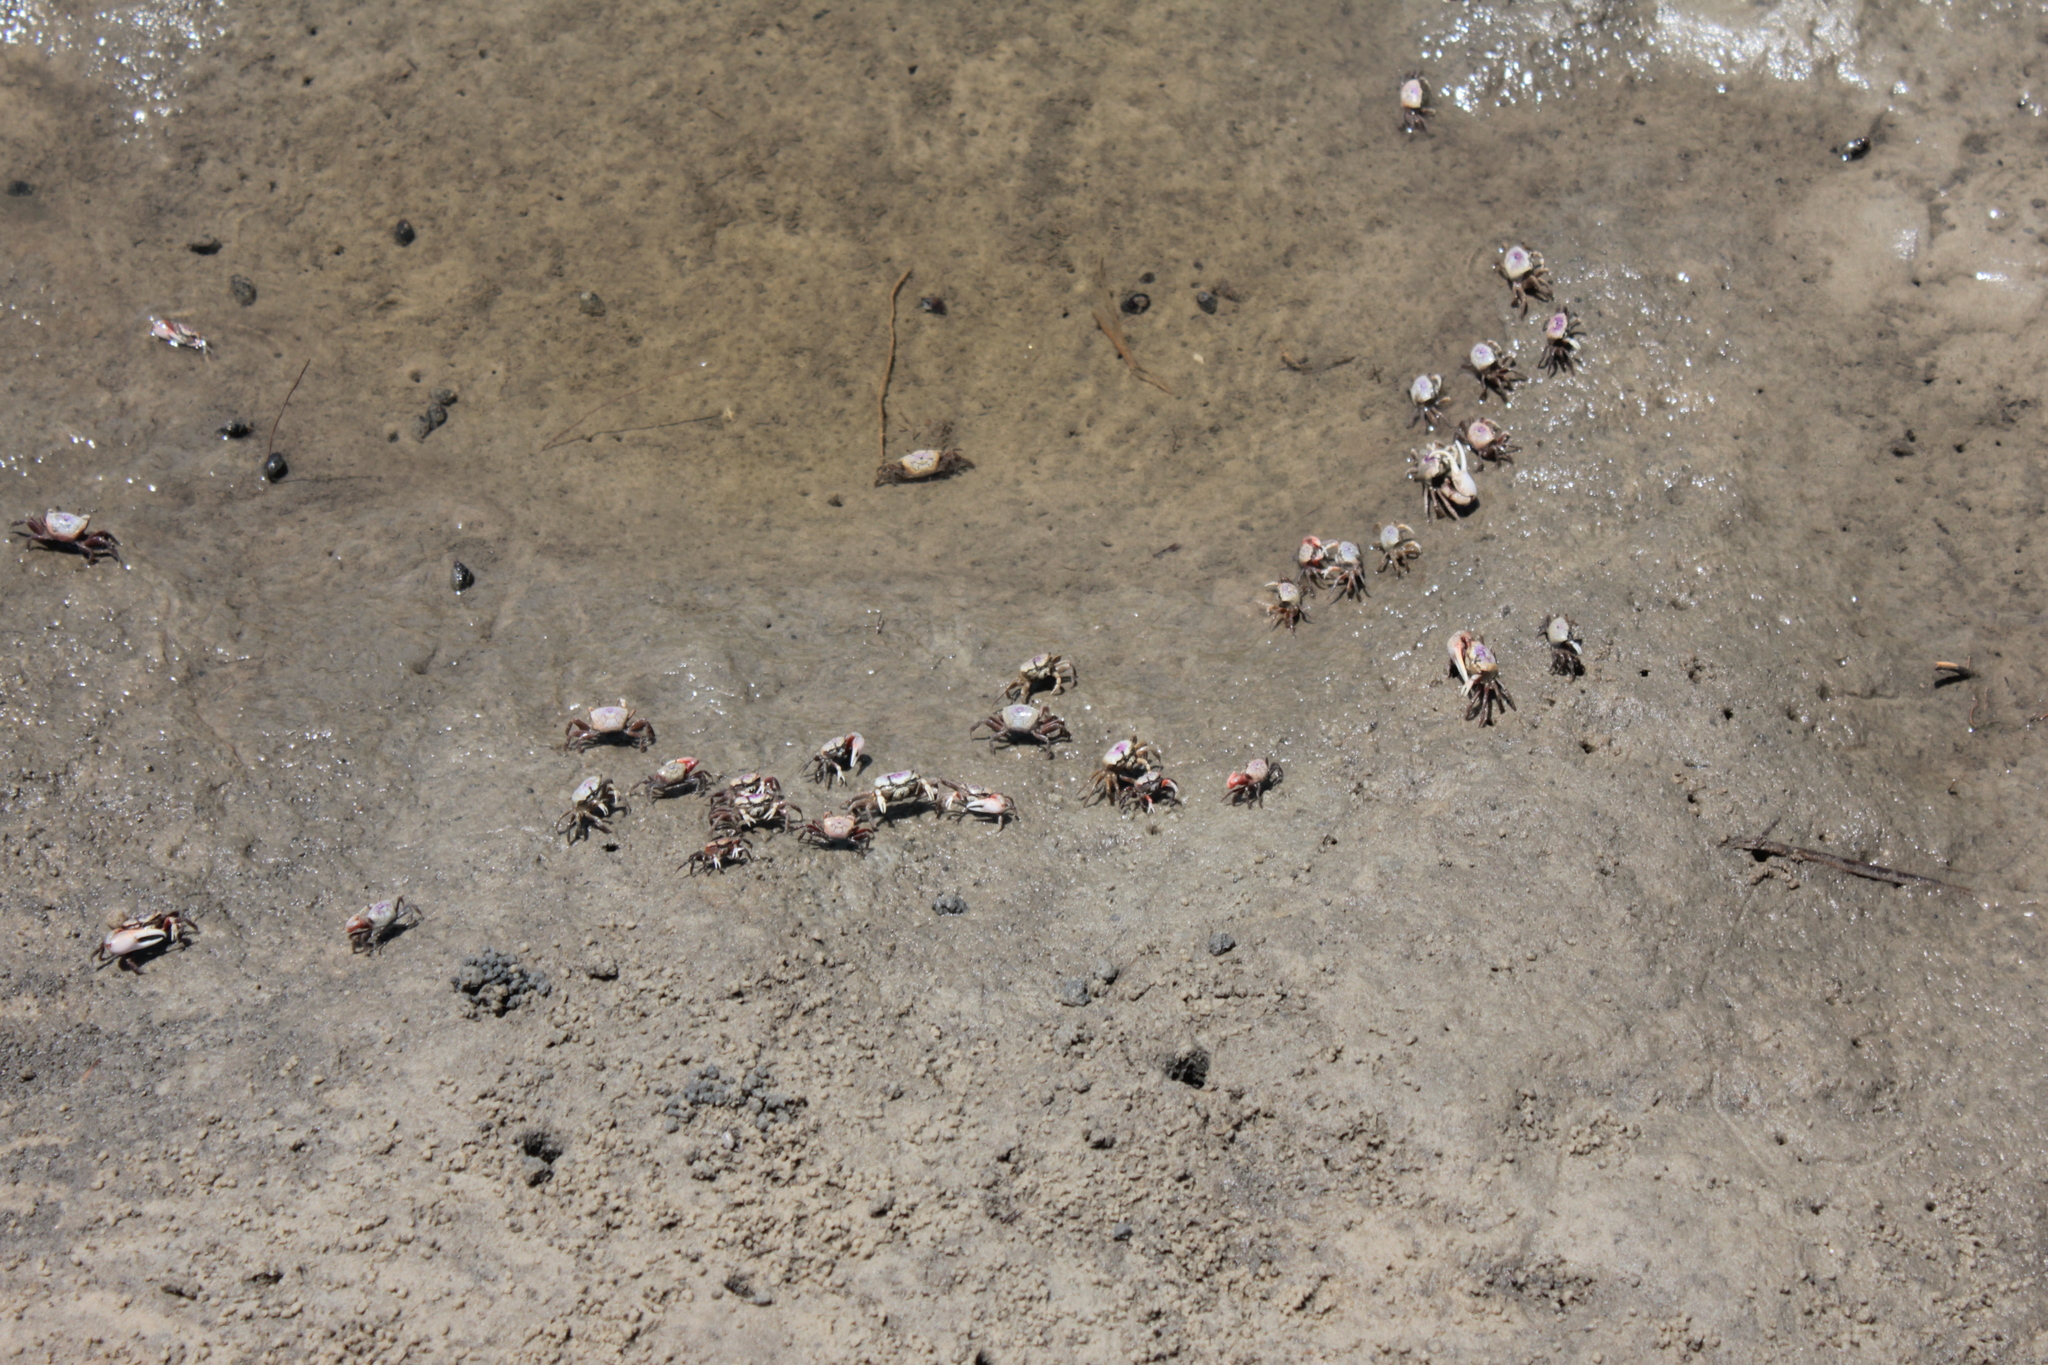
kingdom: Animalia
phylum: Arthropoda
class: Malacostraca
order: Decapoda
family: Ocypodidae
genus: Leptuca
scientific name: Leptuca pugilator
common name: Atlantic sand fiddler crab
